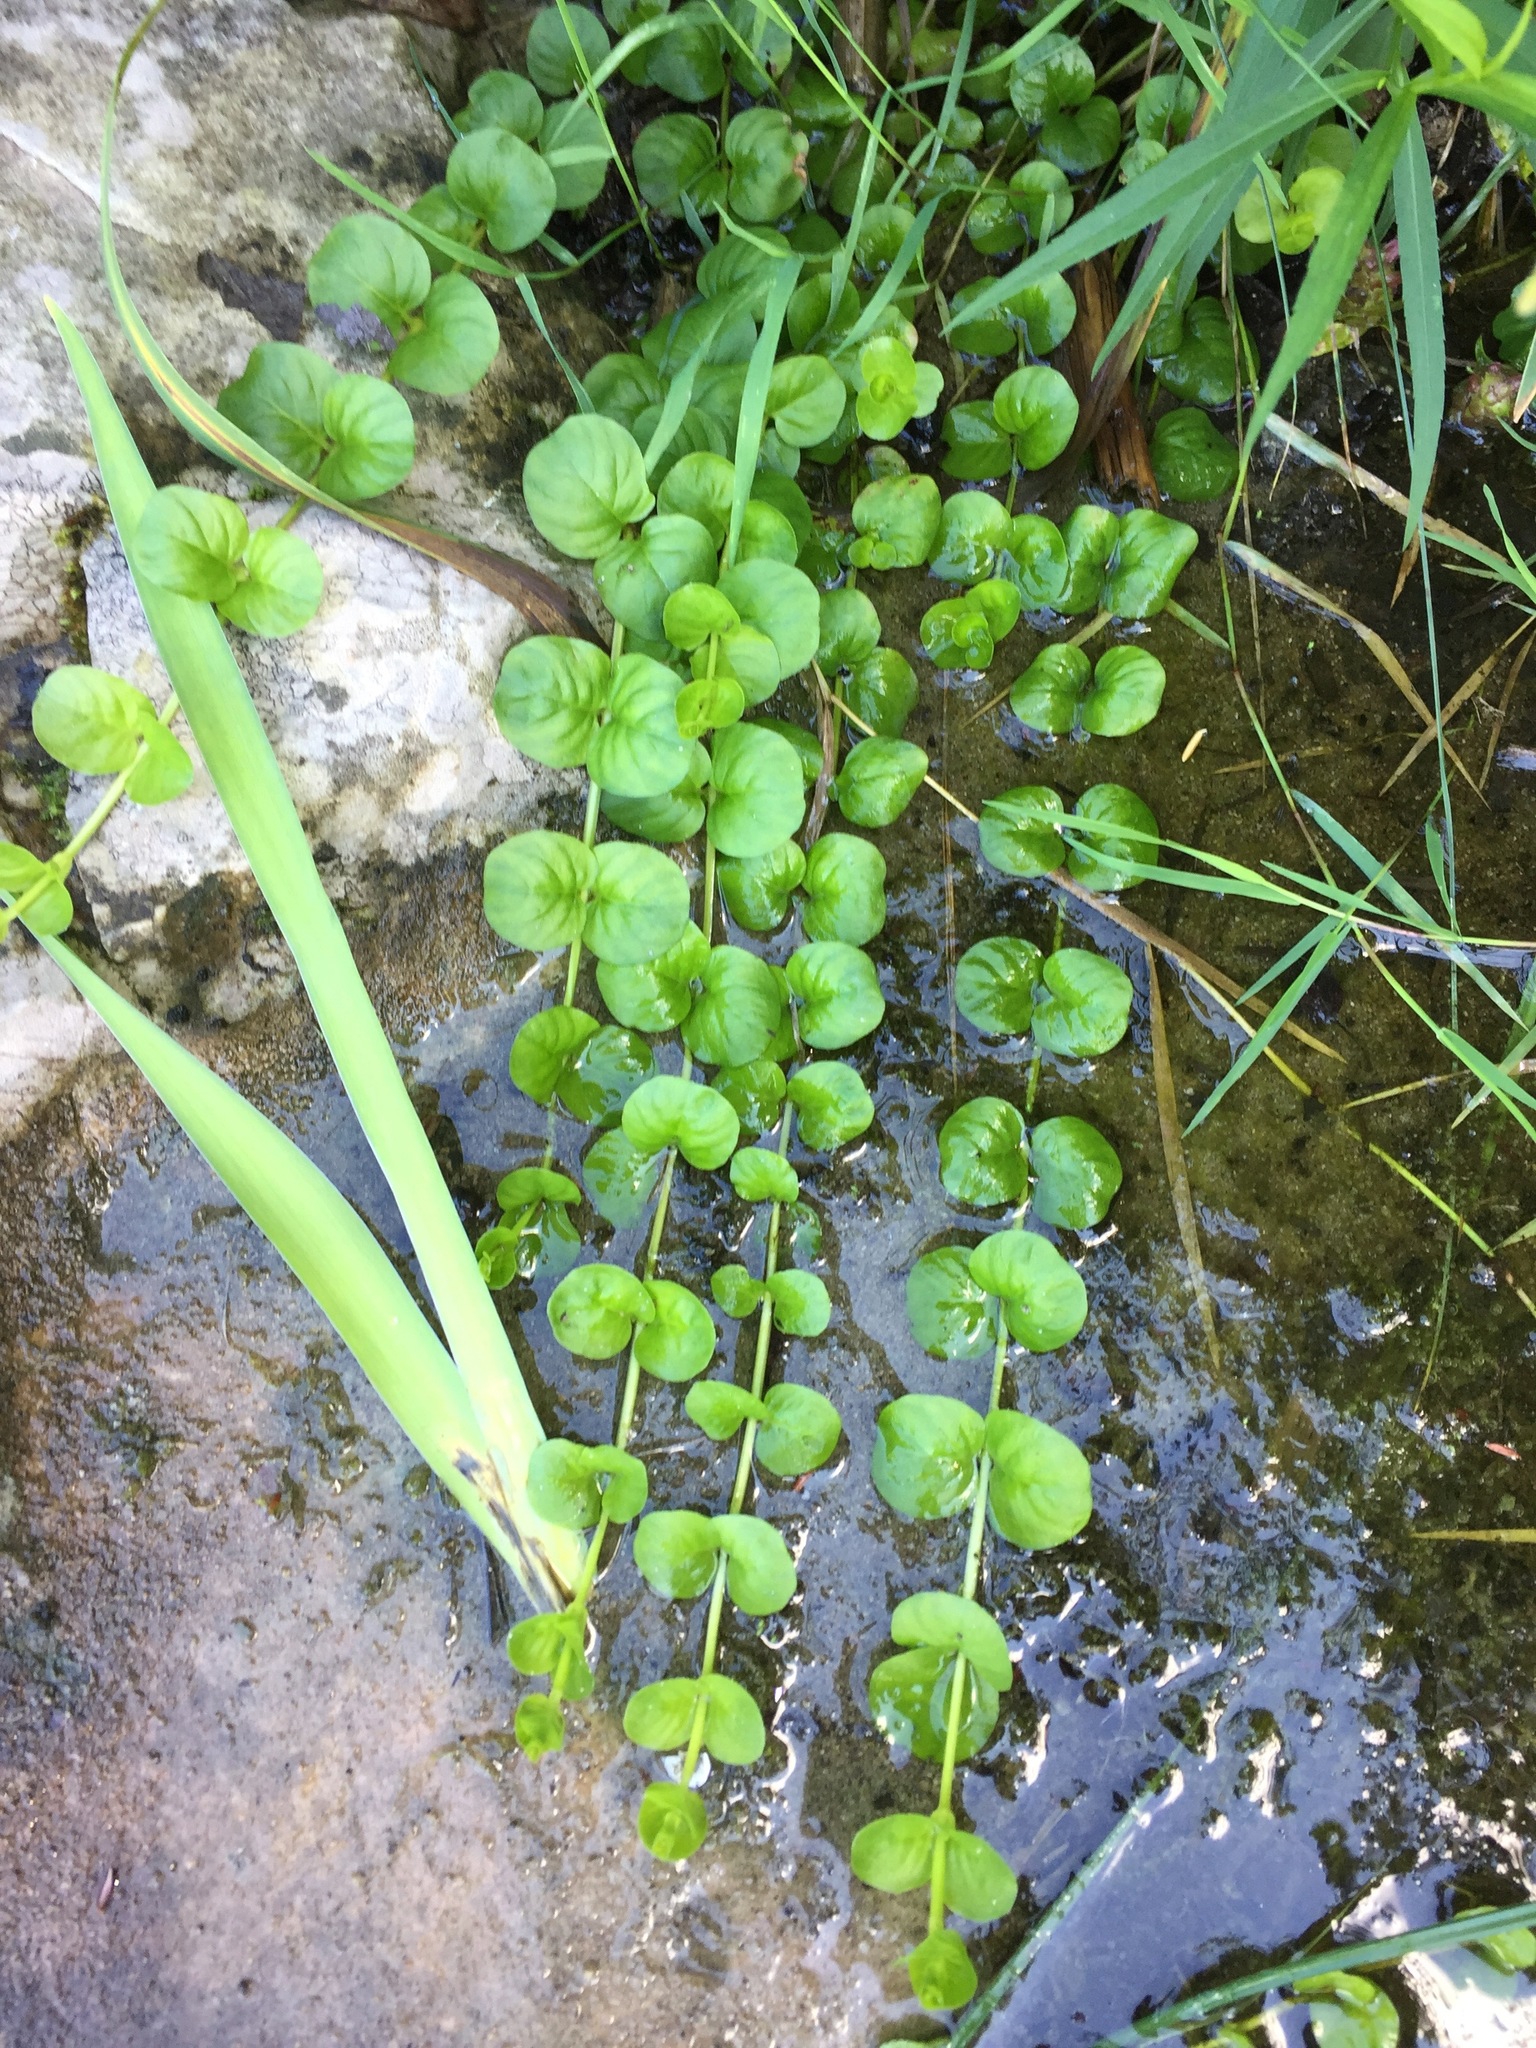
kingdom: Plantae
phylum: Tracheophyta
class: Magnoliopsida
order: Ericales
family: Primulaceae
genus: Lysimachia
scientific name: Lysimachia nummularia
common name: Moneywort
